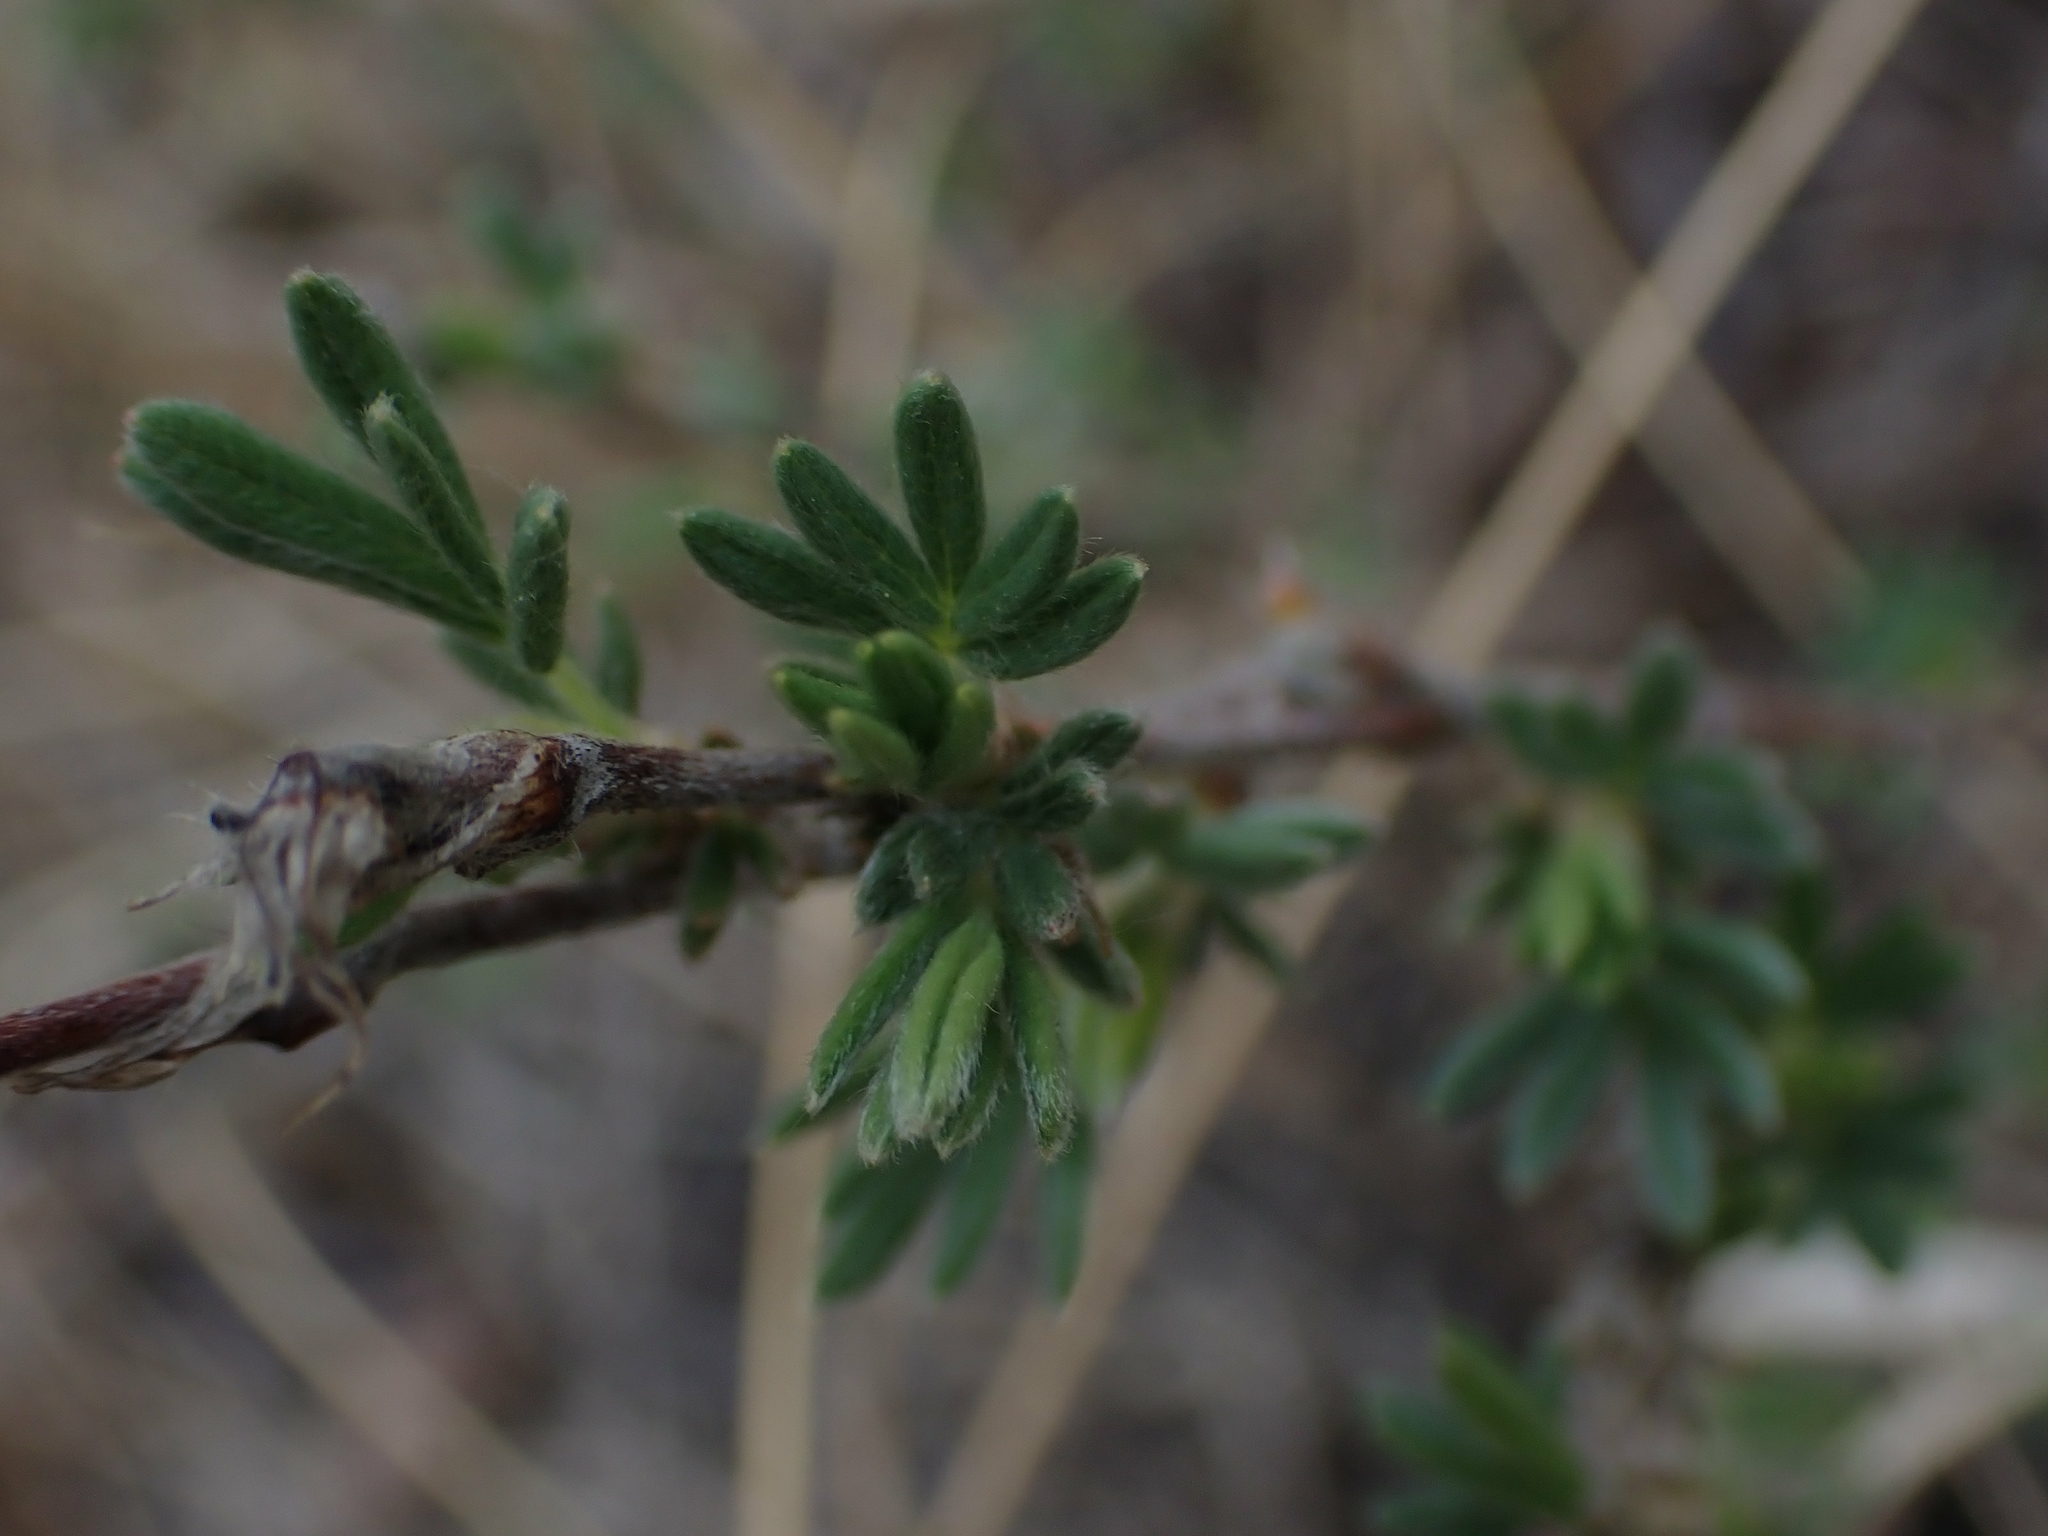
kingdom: Plantae
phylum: Tracheophyta
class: Magnoliopsida
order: Rosales
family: Rosaceae
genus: Dasiphora
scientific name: Dasiphora fruticosa
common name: Shrubby cinquefoil
